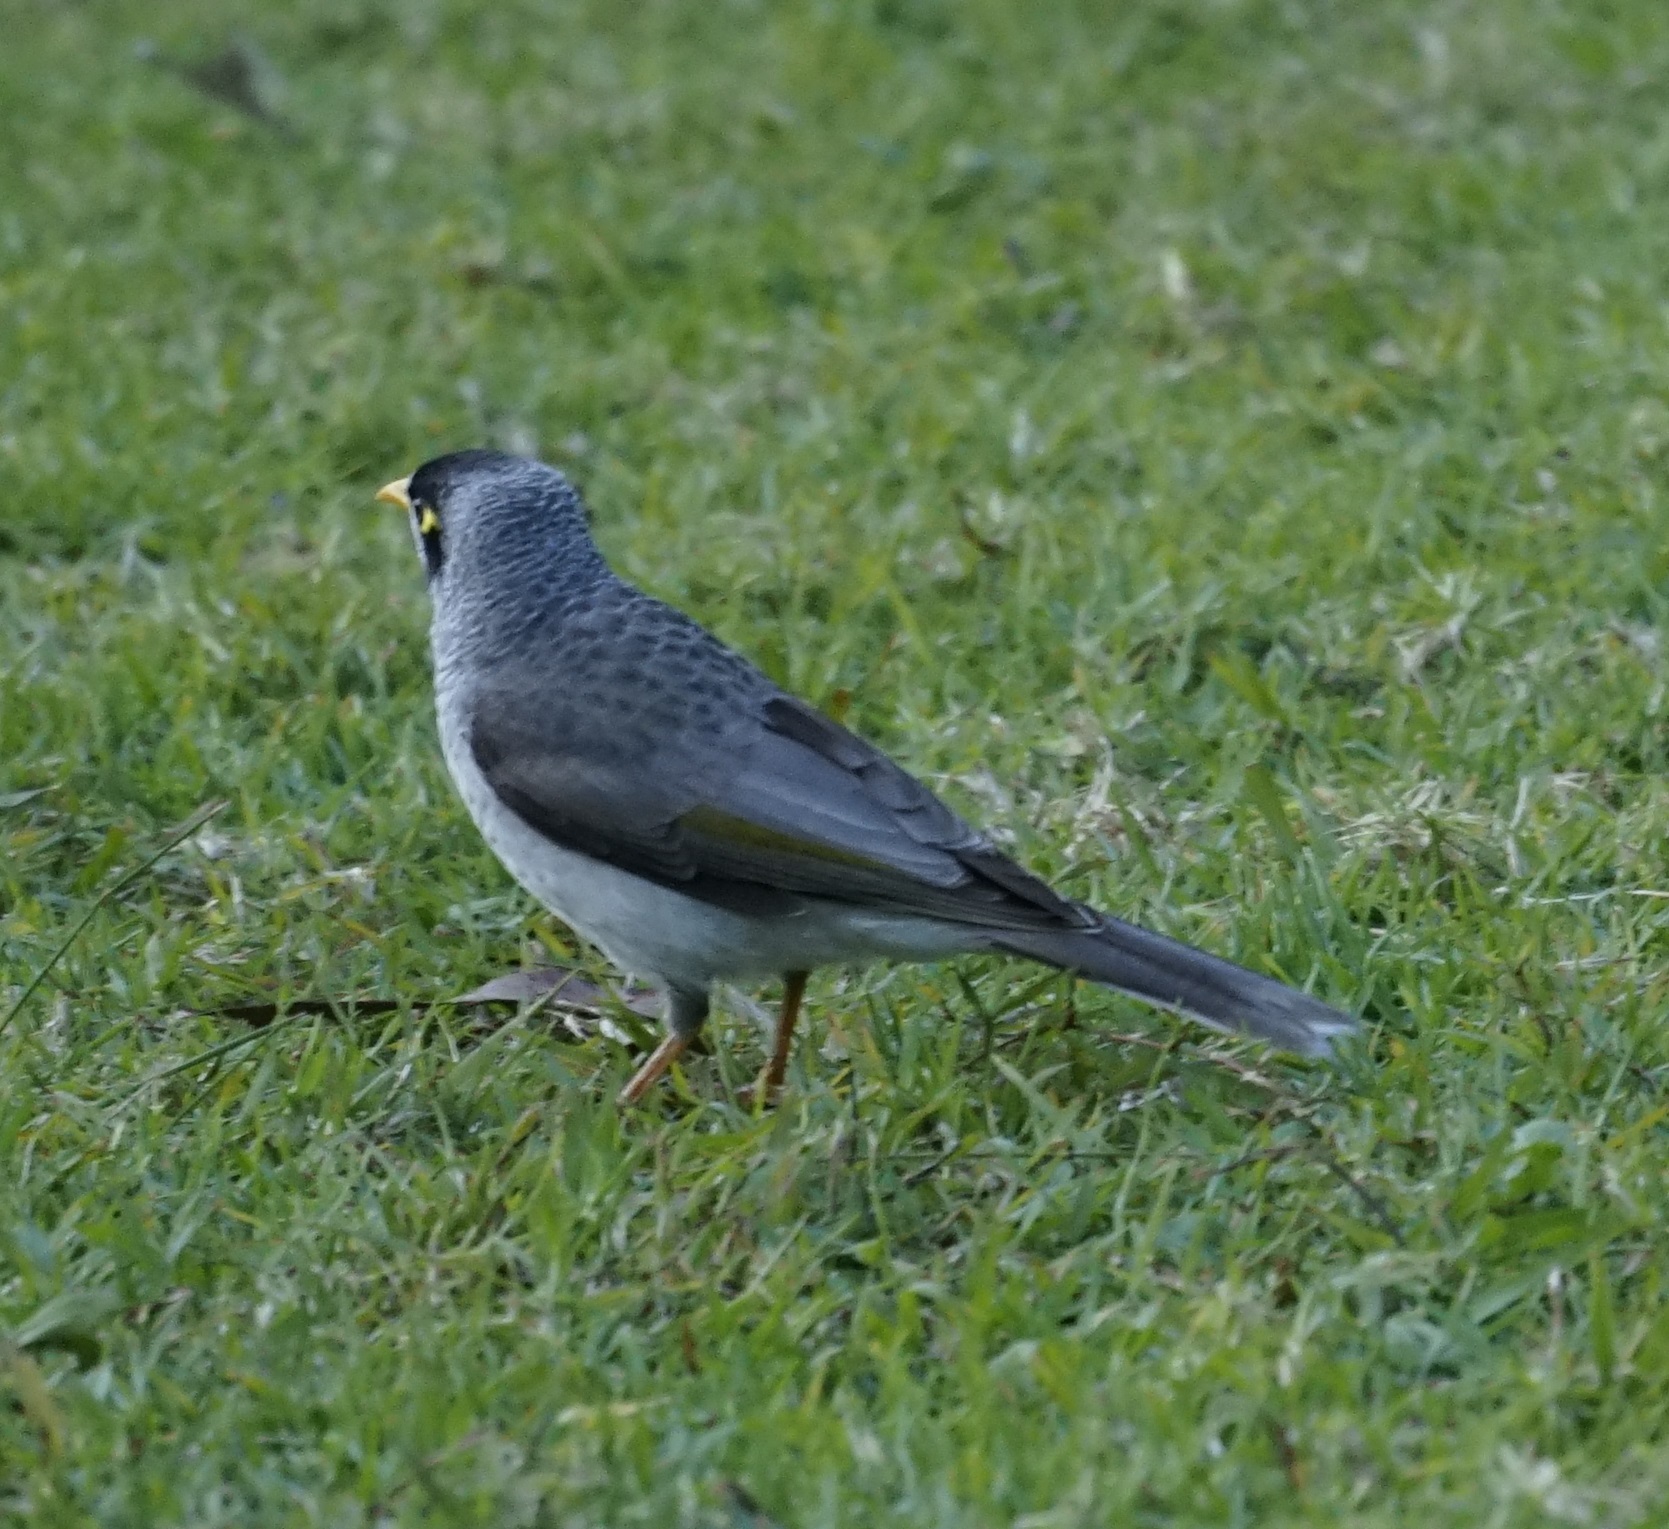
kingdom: Animalia
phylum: Chordata
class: Aves
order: Passeriformes
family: Meliphagidae
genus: Manorina
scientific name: Manorina melanocephala
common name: Noisy miner
